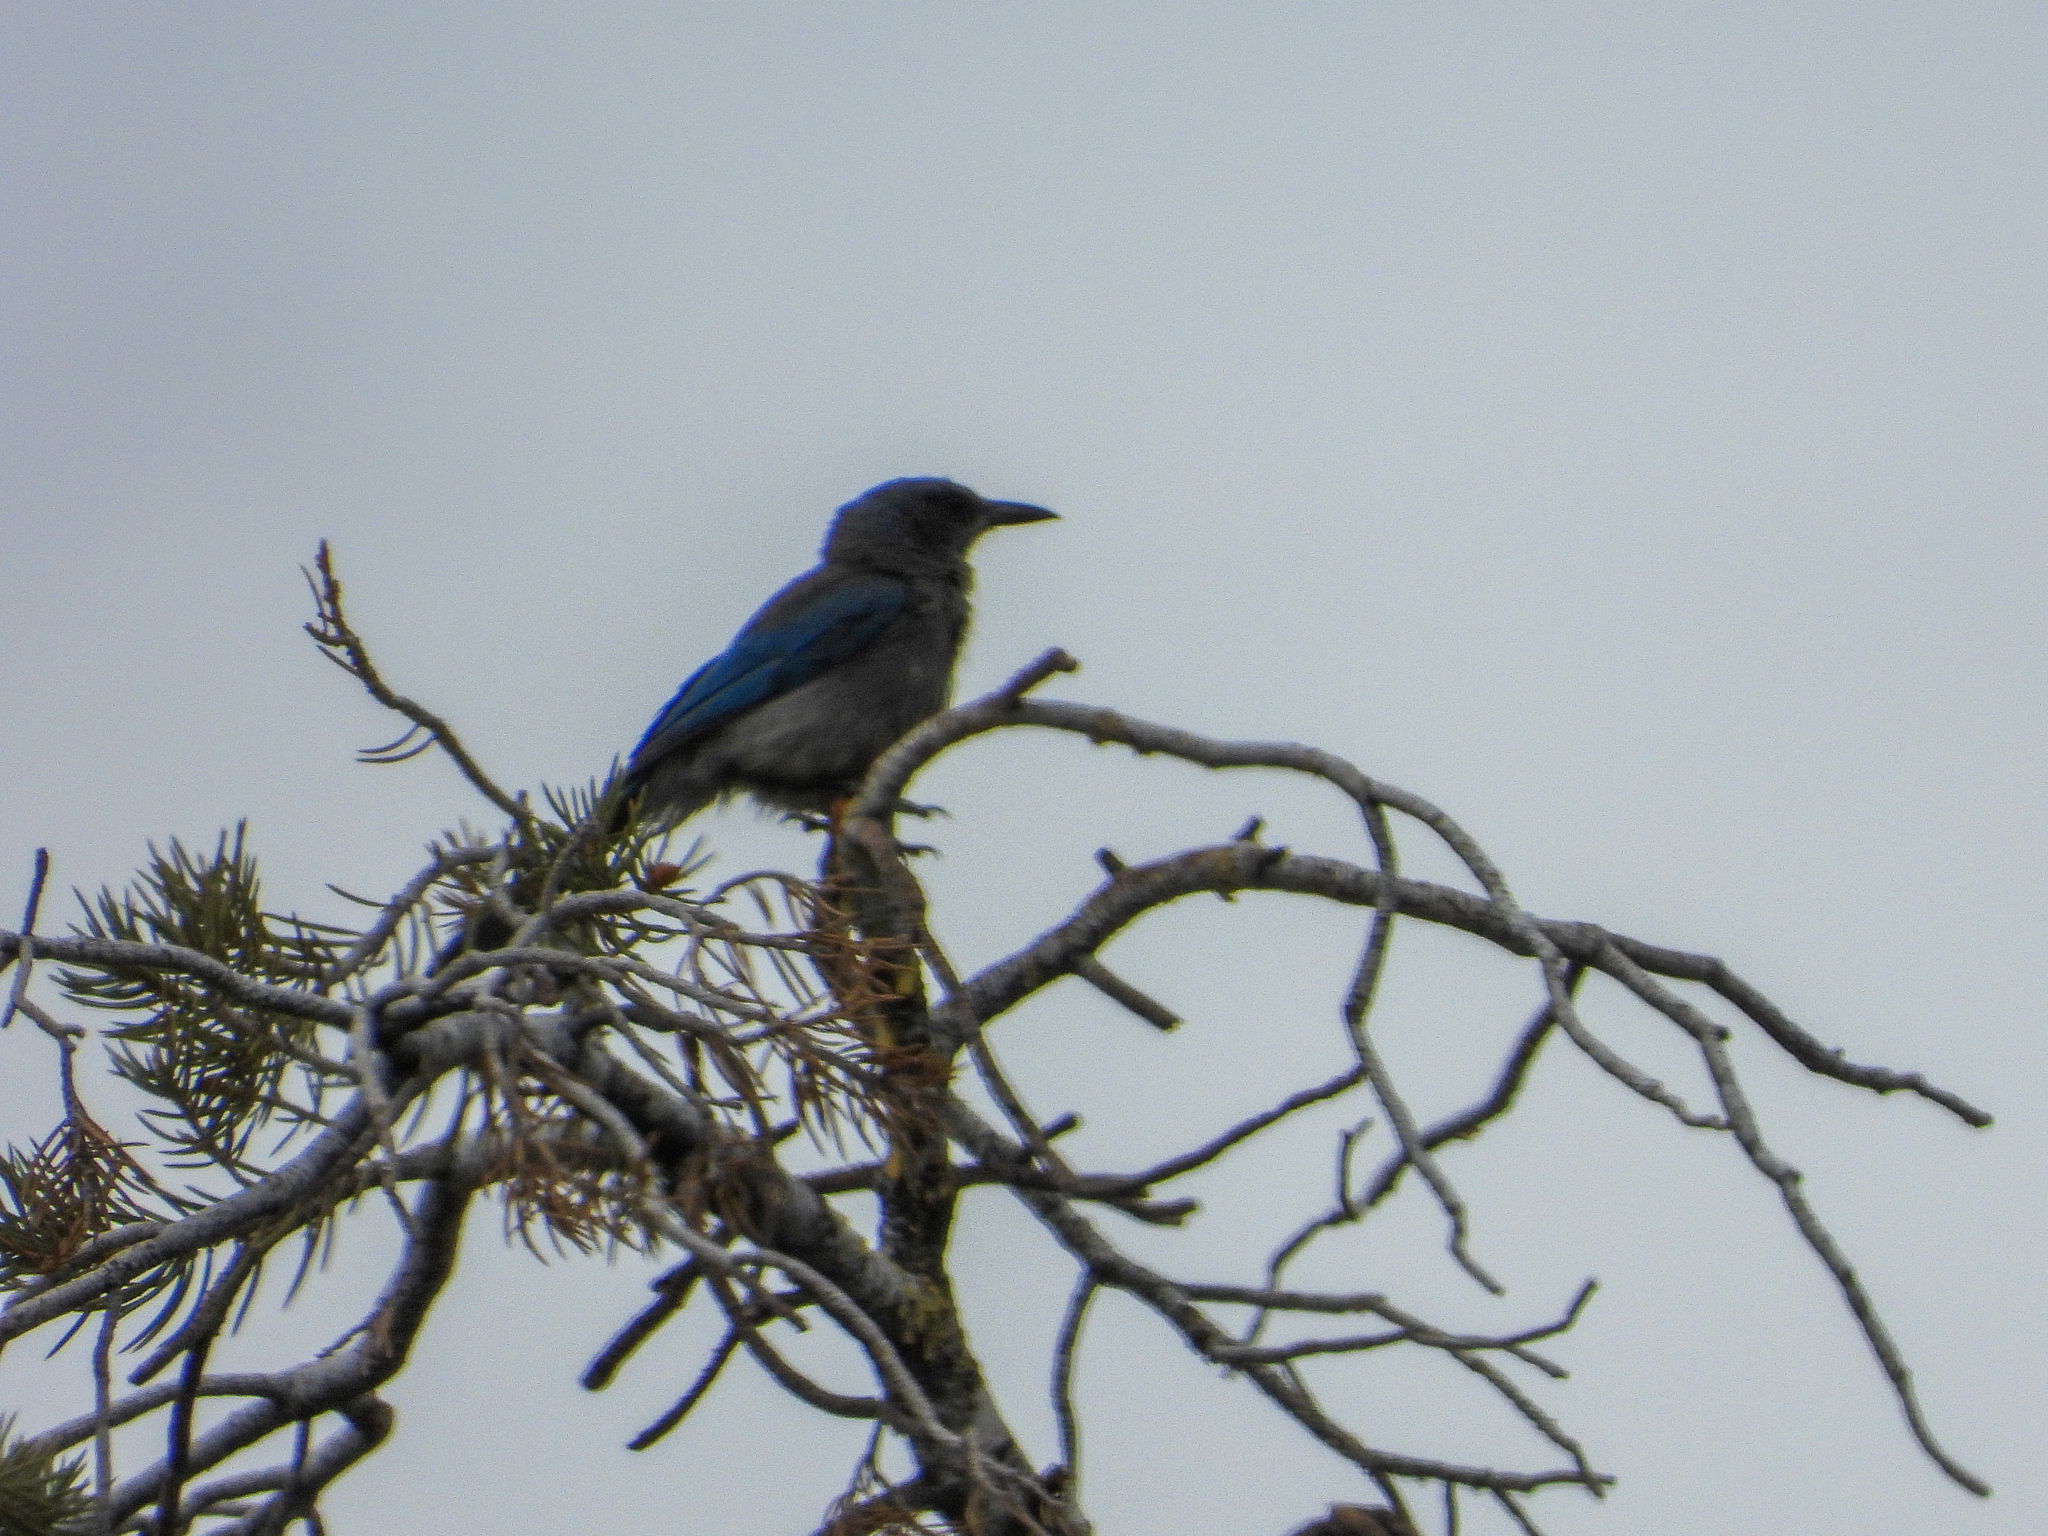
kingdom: Animalia
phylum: Chordata
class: Aves
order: Passeriformes
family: Corvidae
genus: Aphelocoma
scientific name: Aphelocoma woodhouseii
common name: Woodhouse's scrub-jay
